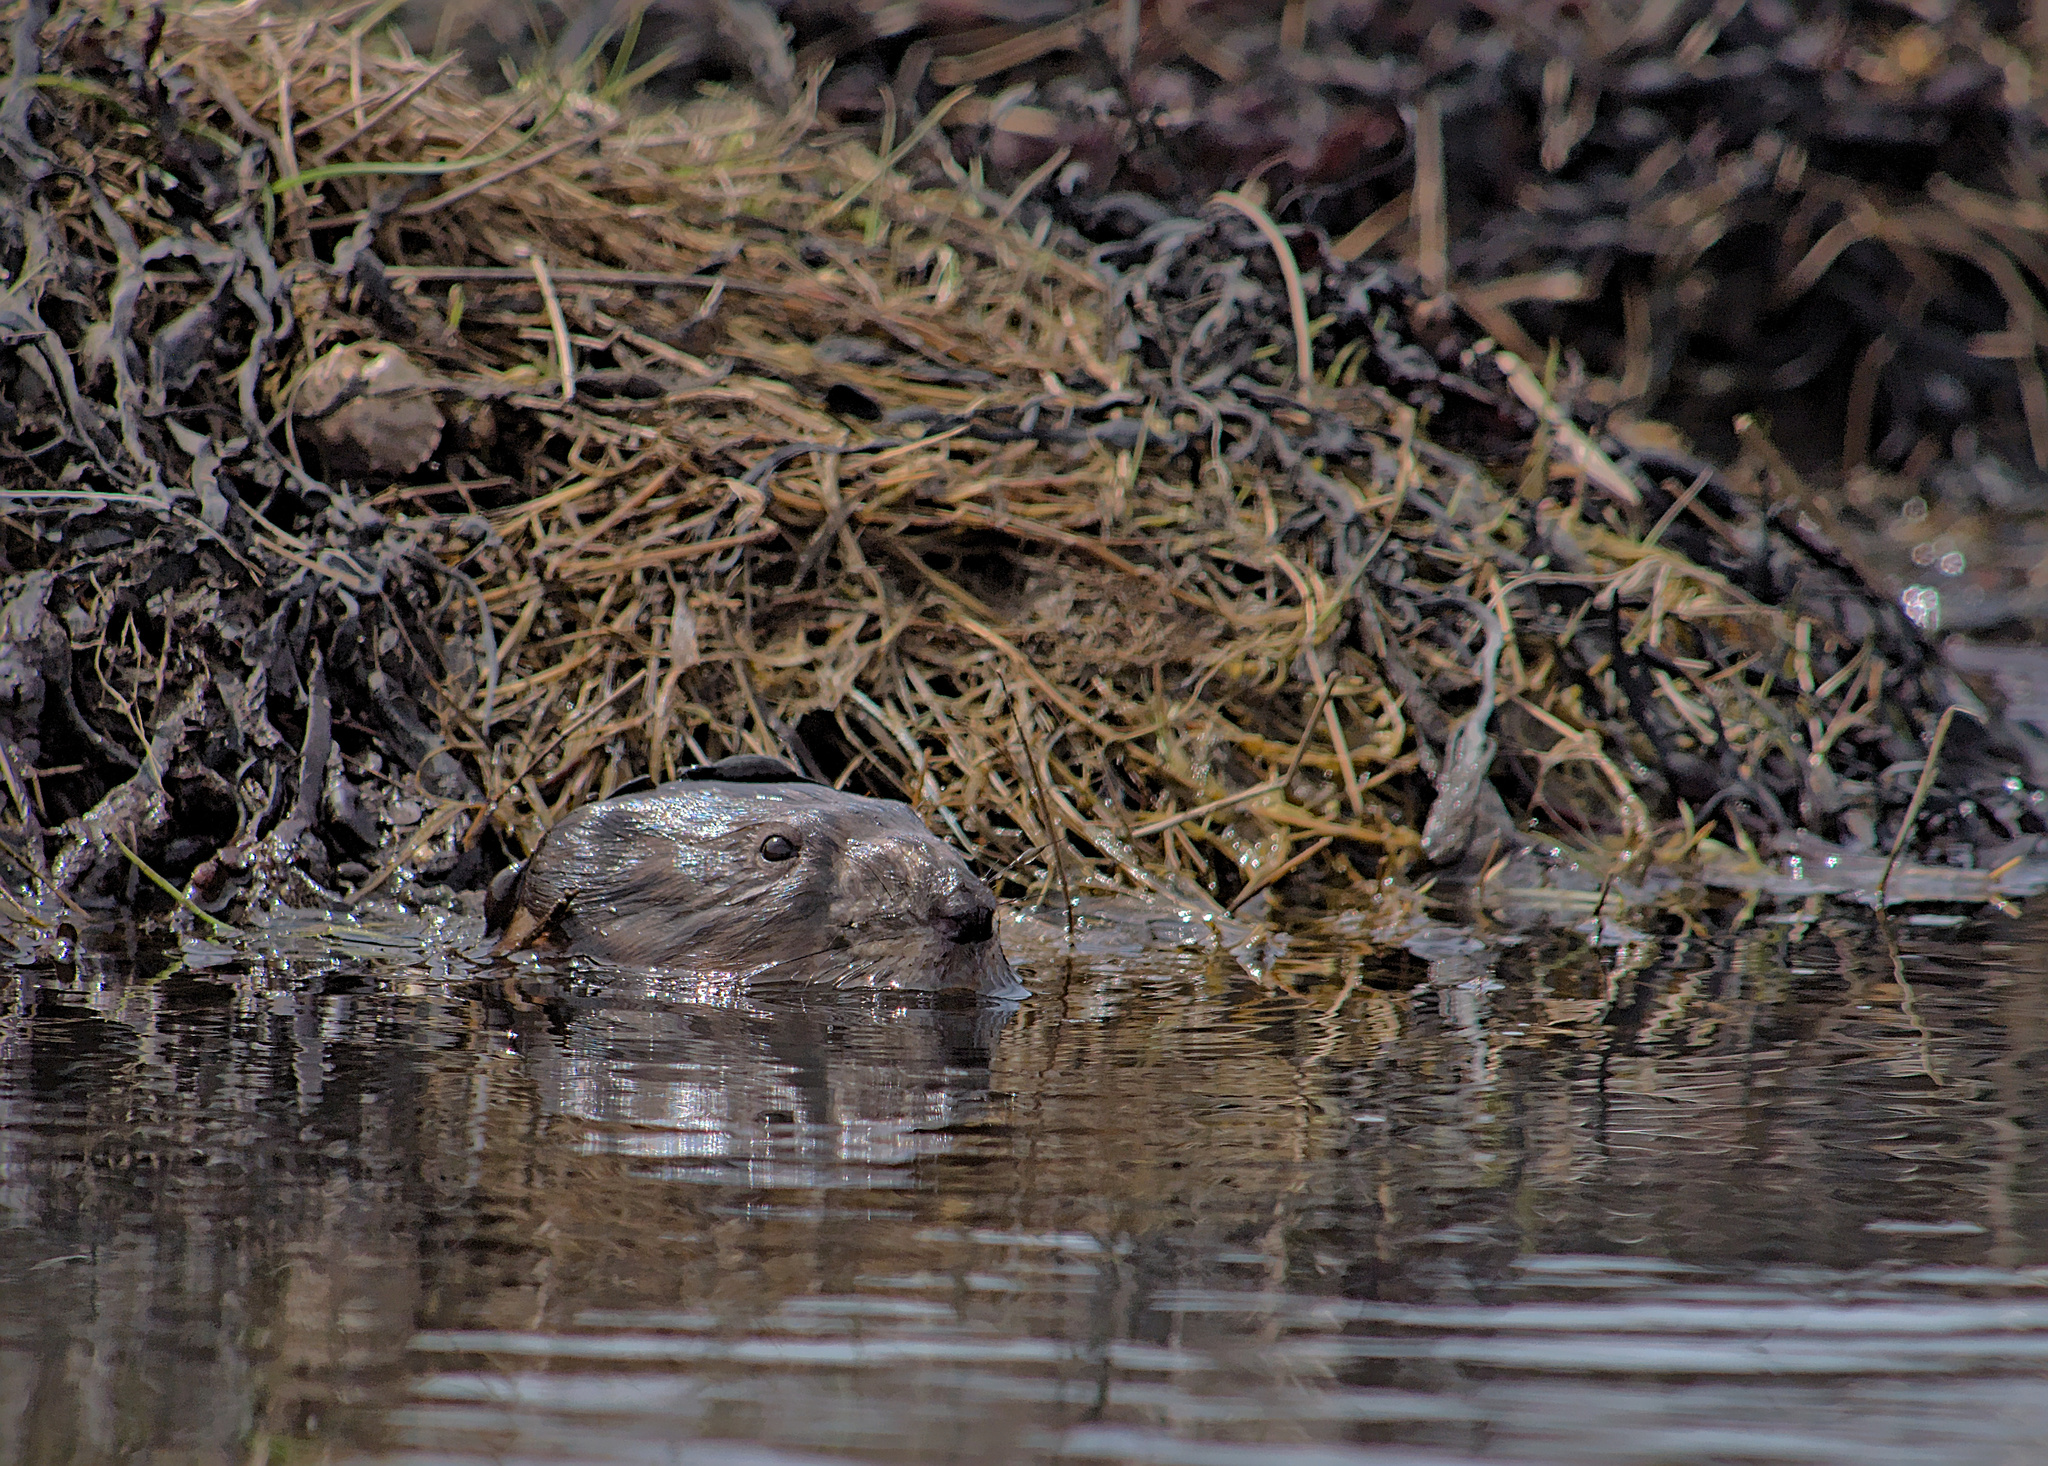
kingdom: Animalia
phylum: Chordata
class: Mammalia
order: Rodentia
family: Castoridae
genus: Castor
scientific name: Castor canadensis
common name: American beaver
